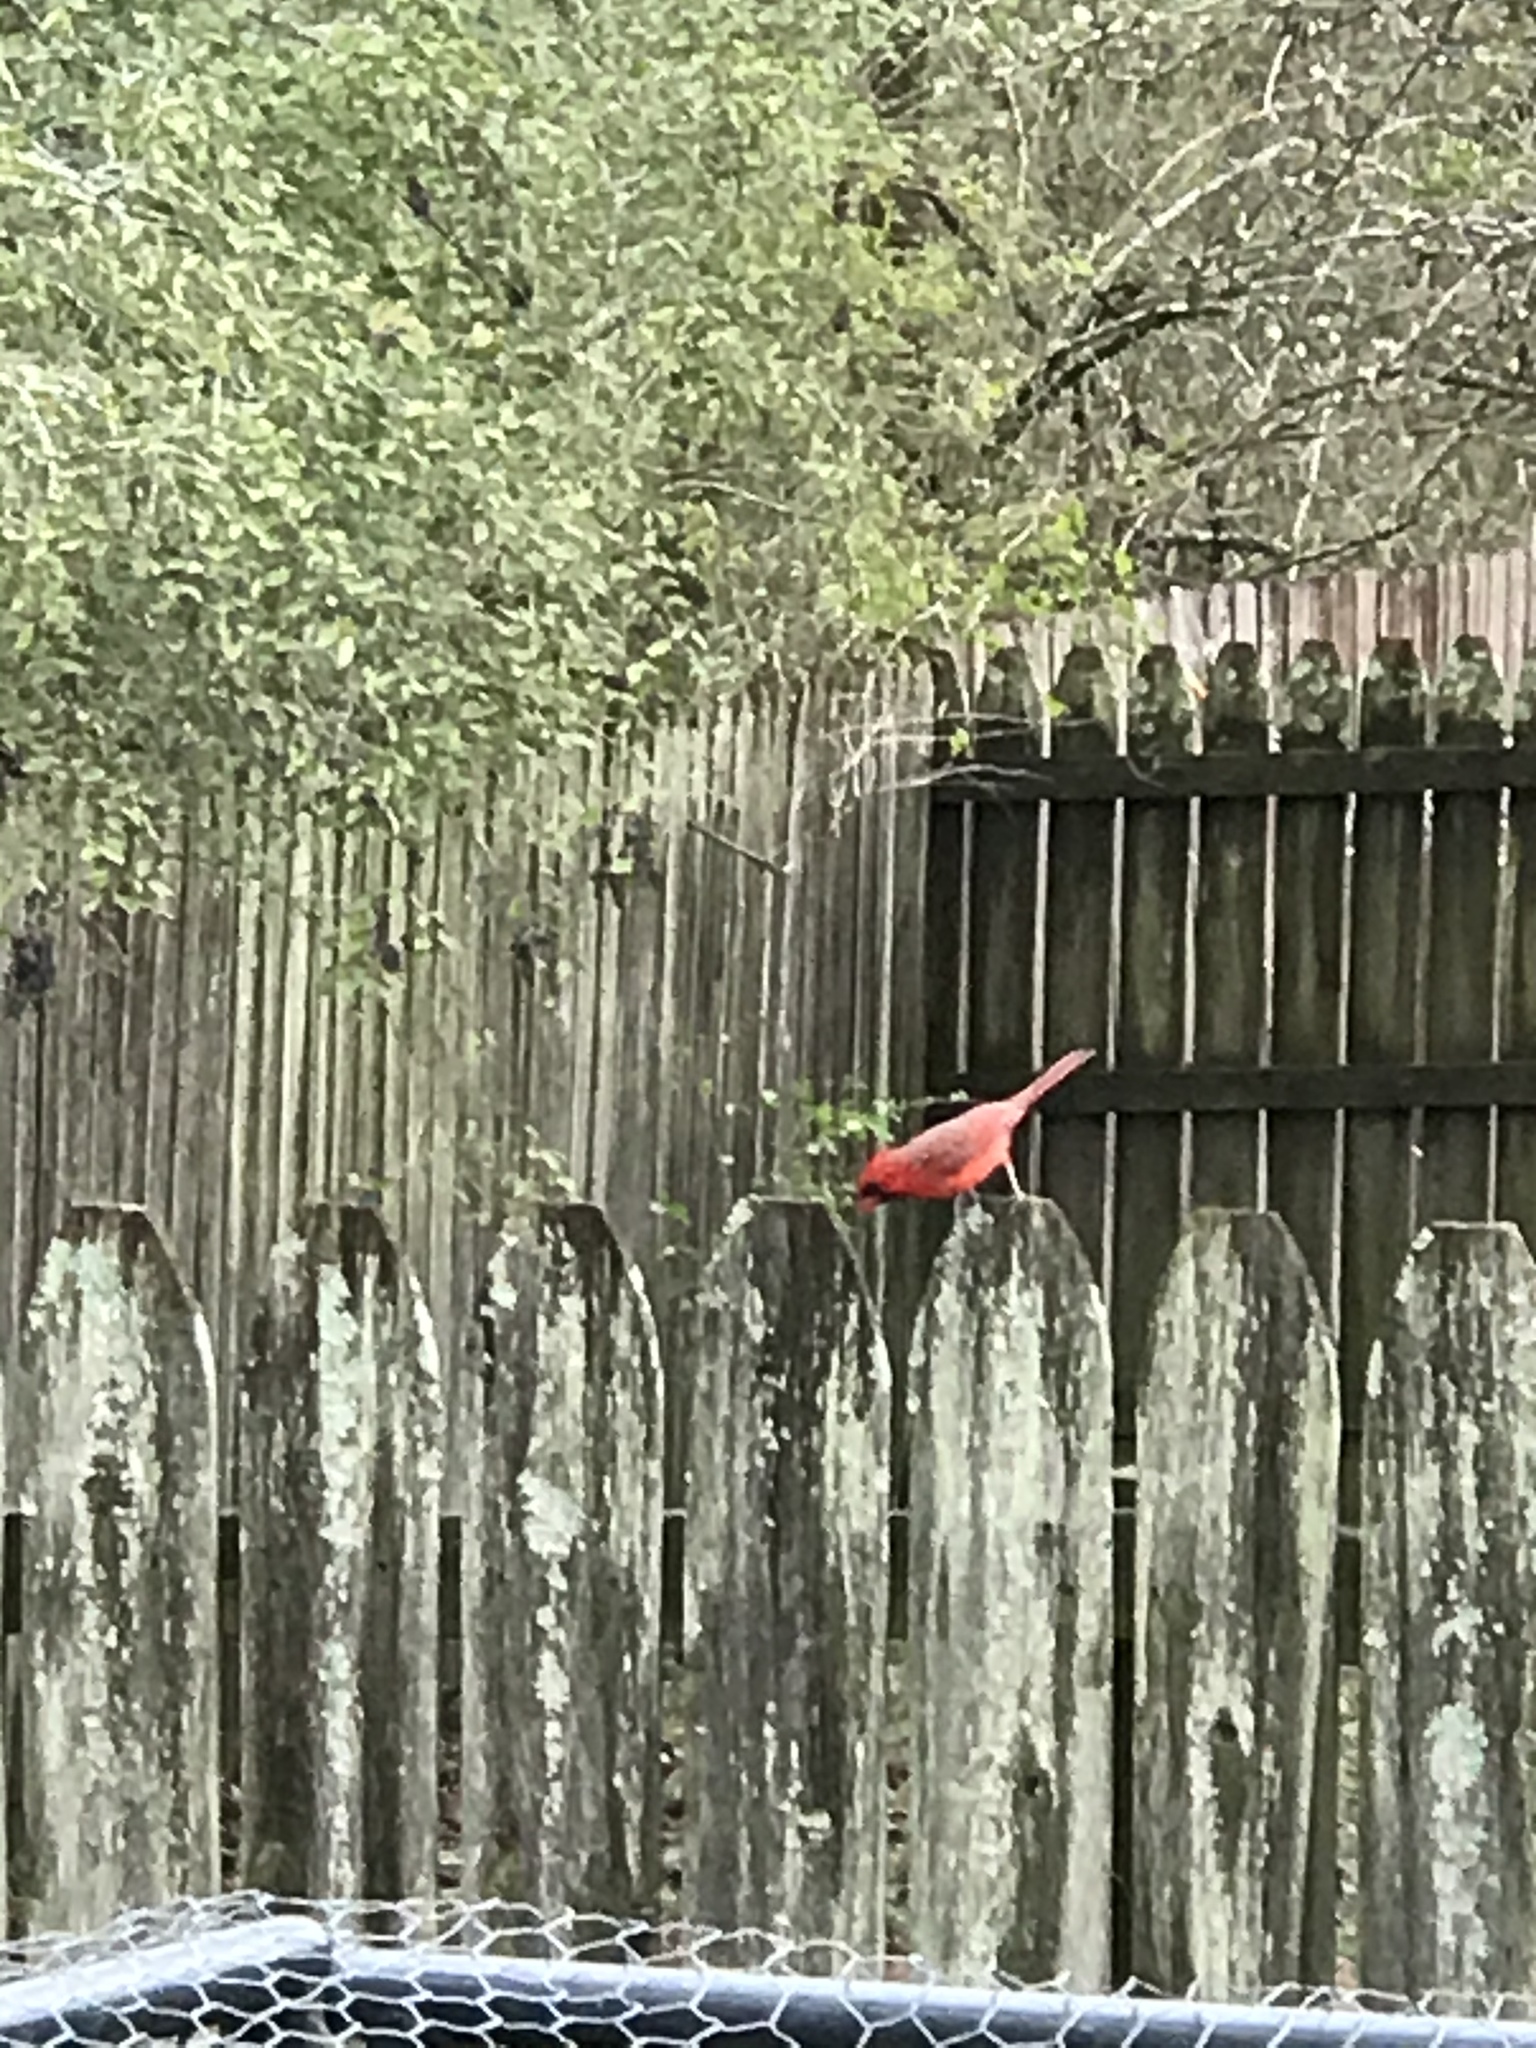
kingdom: Animalia
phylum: Chordata
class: Aves
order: Passeriformes
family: Cardinalidae
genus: Cardinalis
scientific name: Cardinalis cardinalis
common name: Northern cardinal
